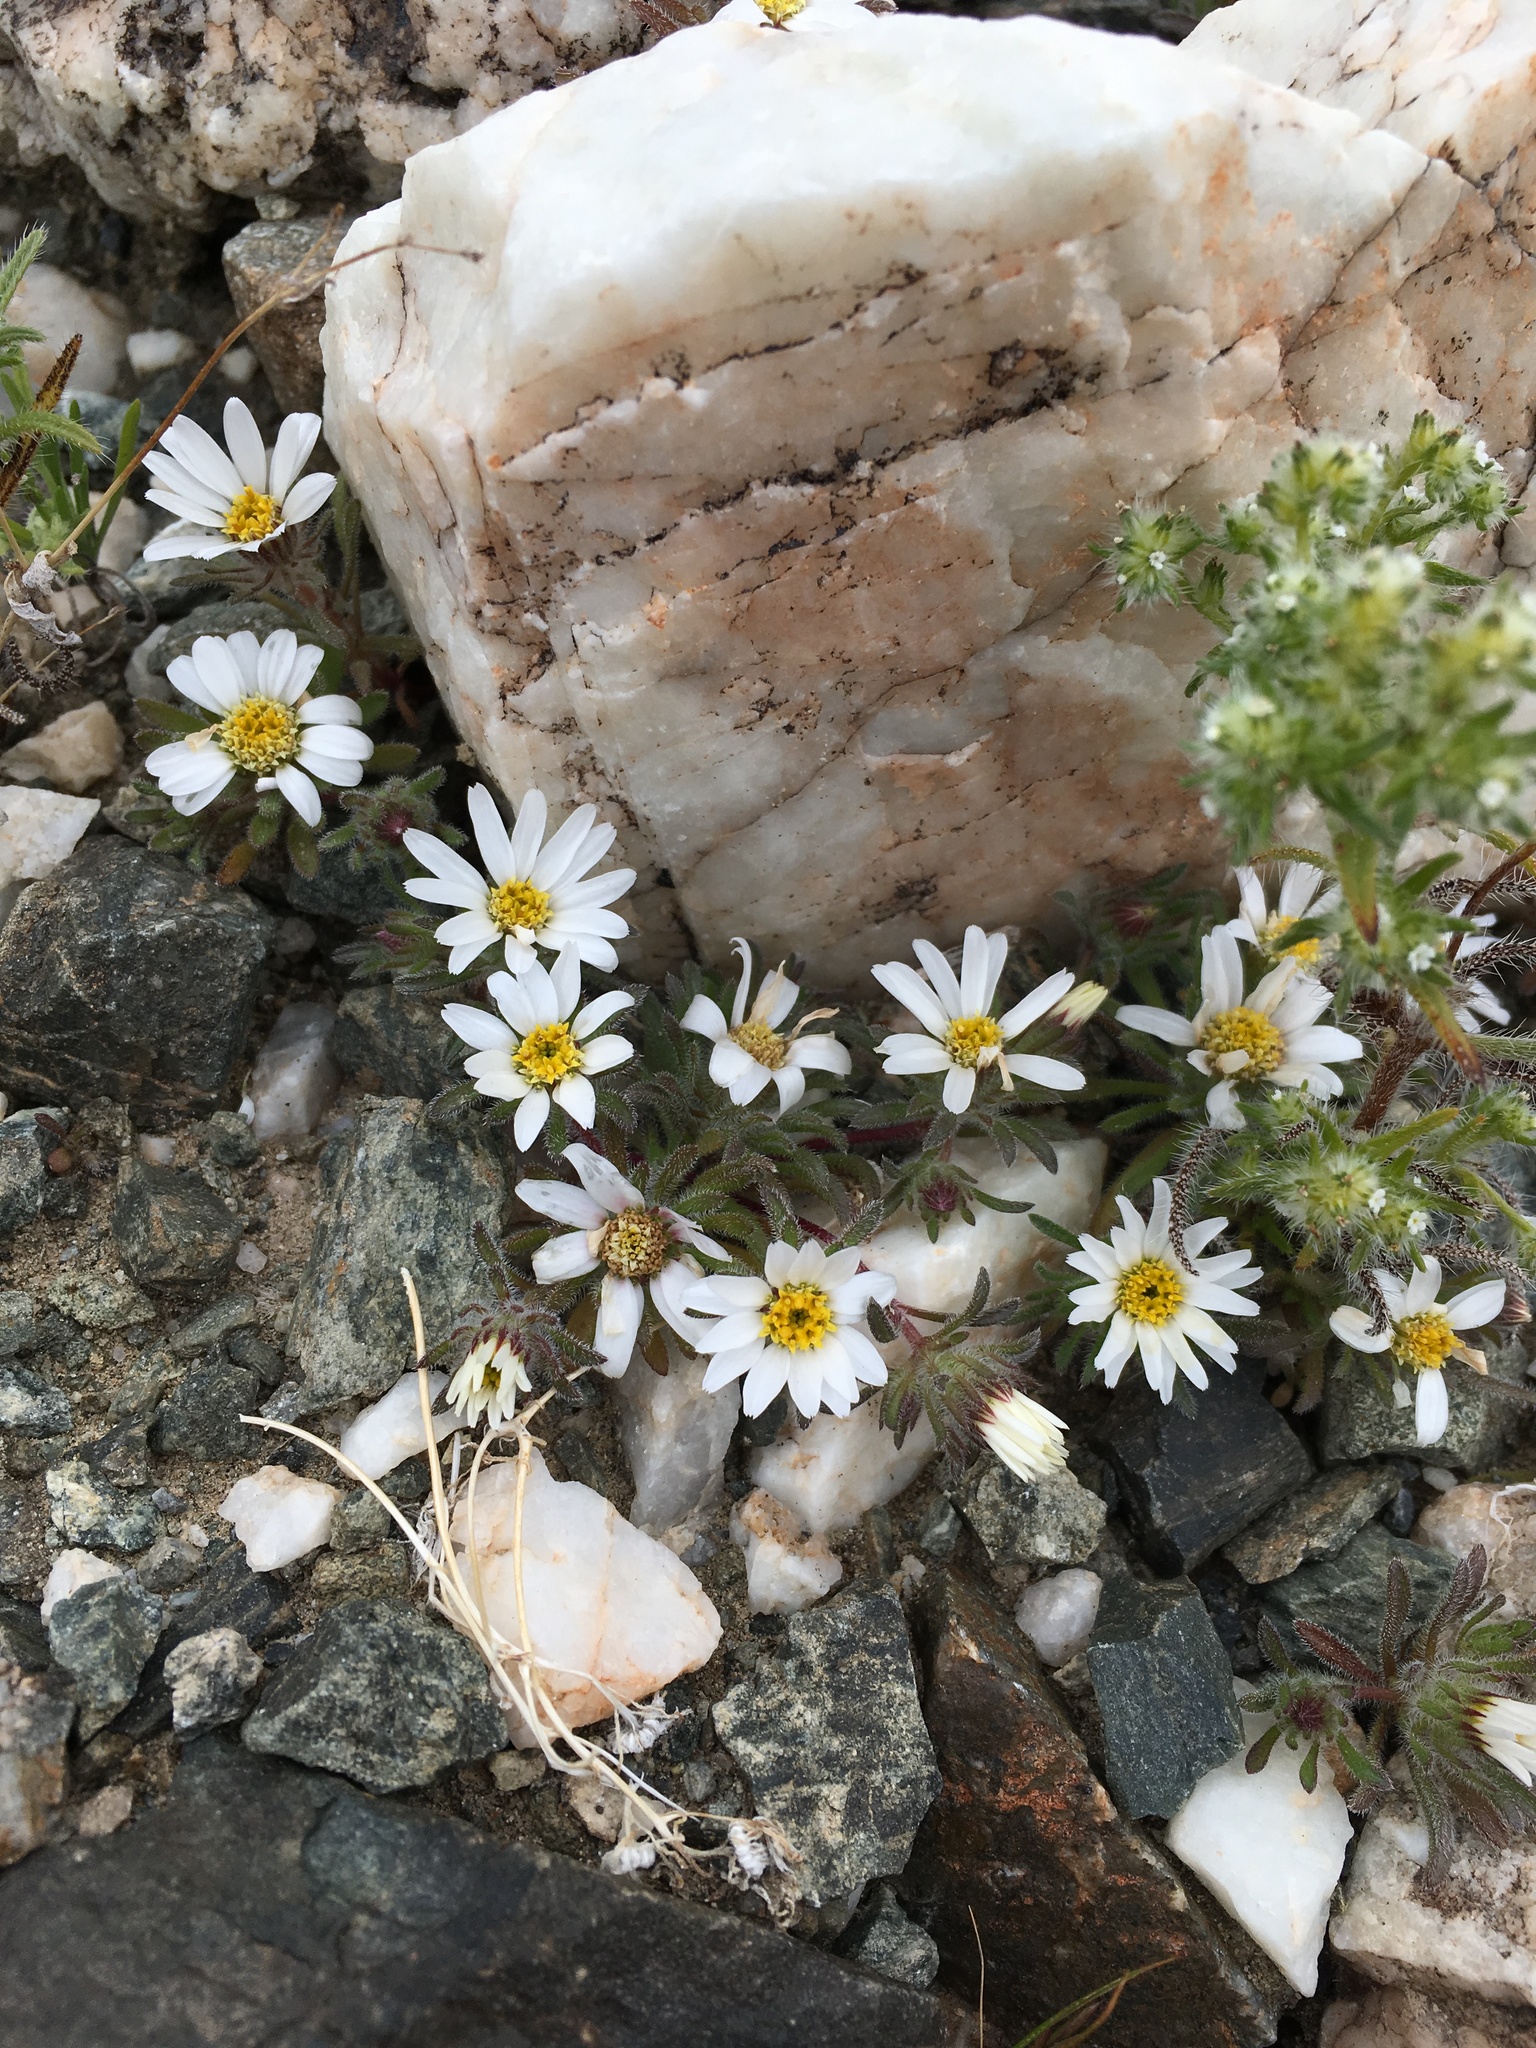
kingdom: Plantae
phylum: Tracheophyta
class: Magnoliopsida
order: Asterales
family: Asteraceae
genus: Monoptilon
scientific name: Monoptilon bellioides
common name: Bristly desertstar
